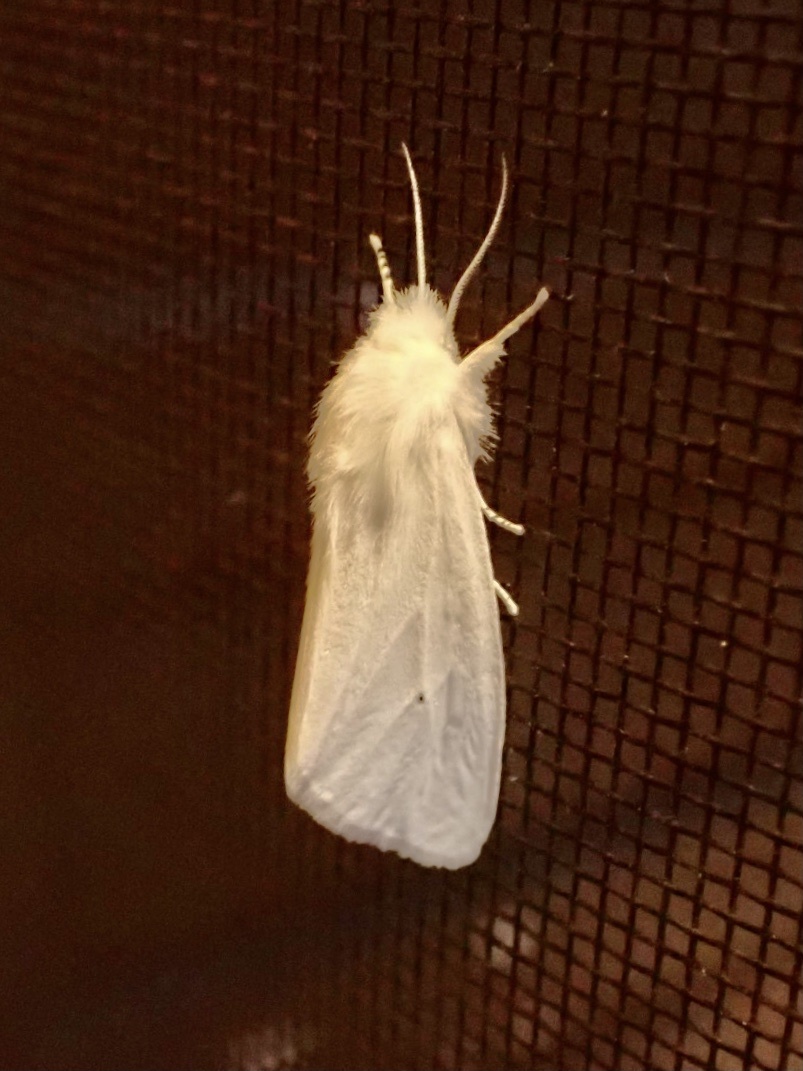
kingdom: Animalia
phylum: Arthropoda
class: Insecta
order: Lepidoptera
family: Erebidae
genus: Spilosoma
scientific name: Spilosoma virginica
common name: Virginia tiger moth
